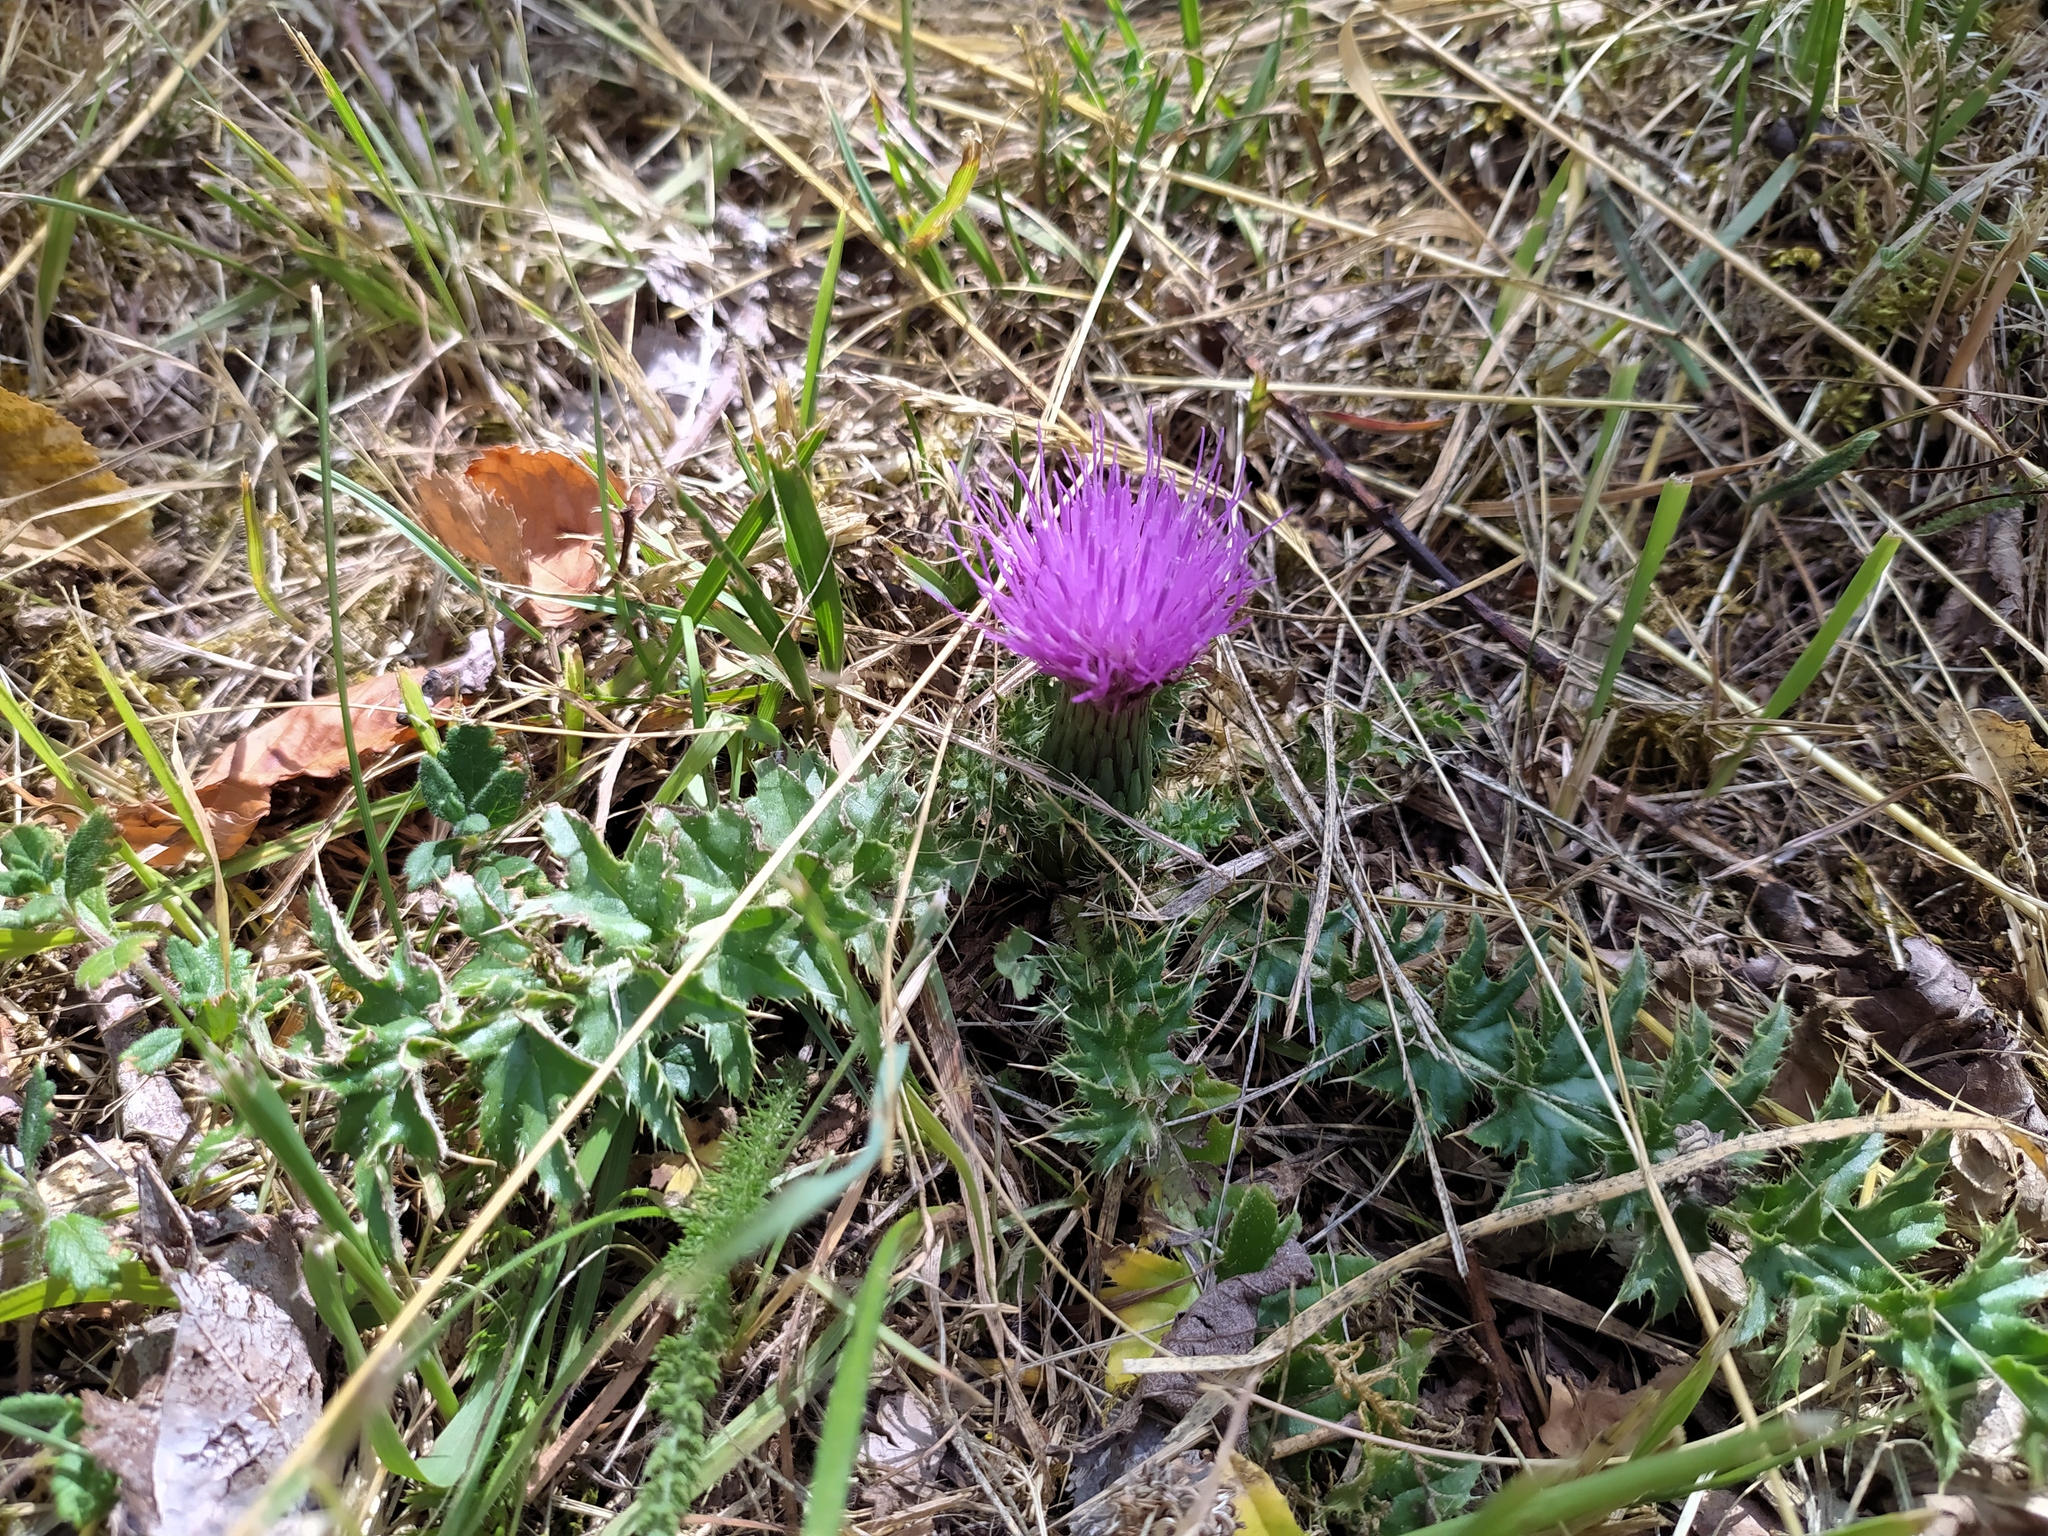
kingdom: Plantae
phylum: Tracheophyta
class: Magnoliopsida
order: Asterales
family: Asteraceae
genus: Cirsium
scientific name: Cirsium acaulon
